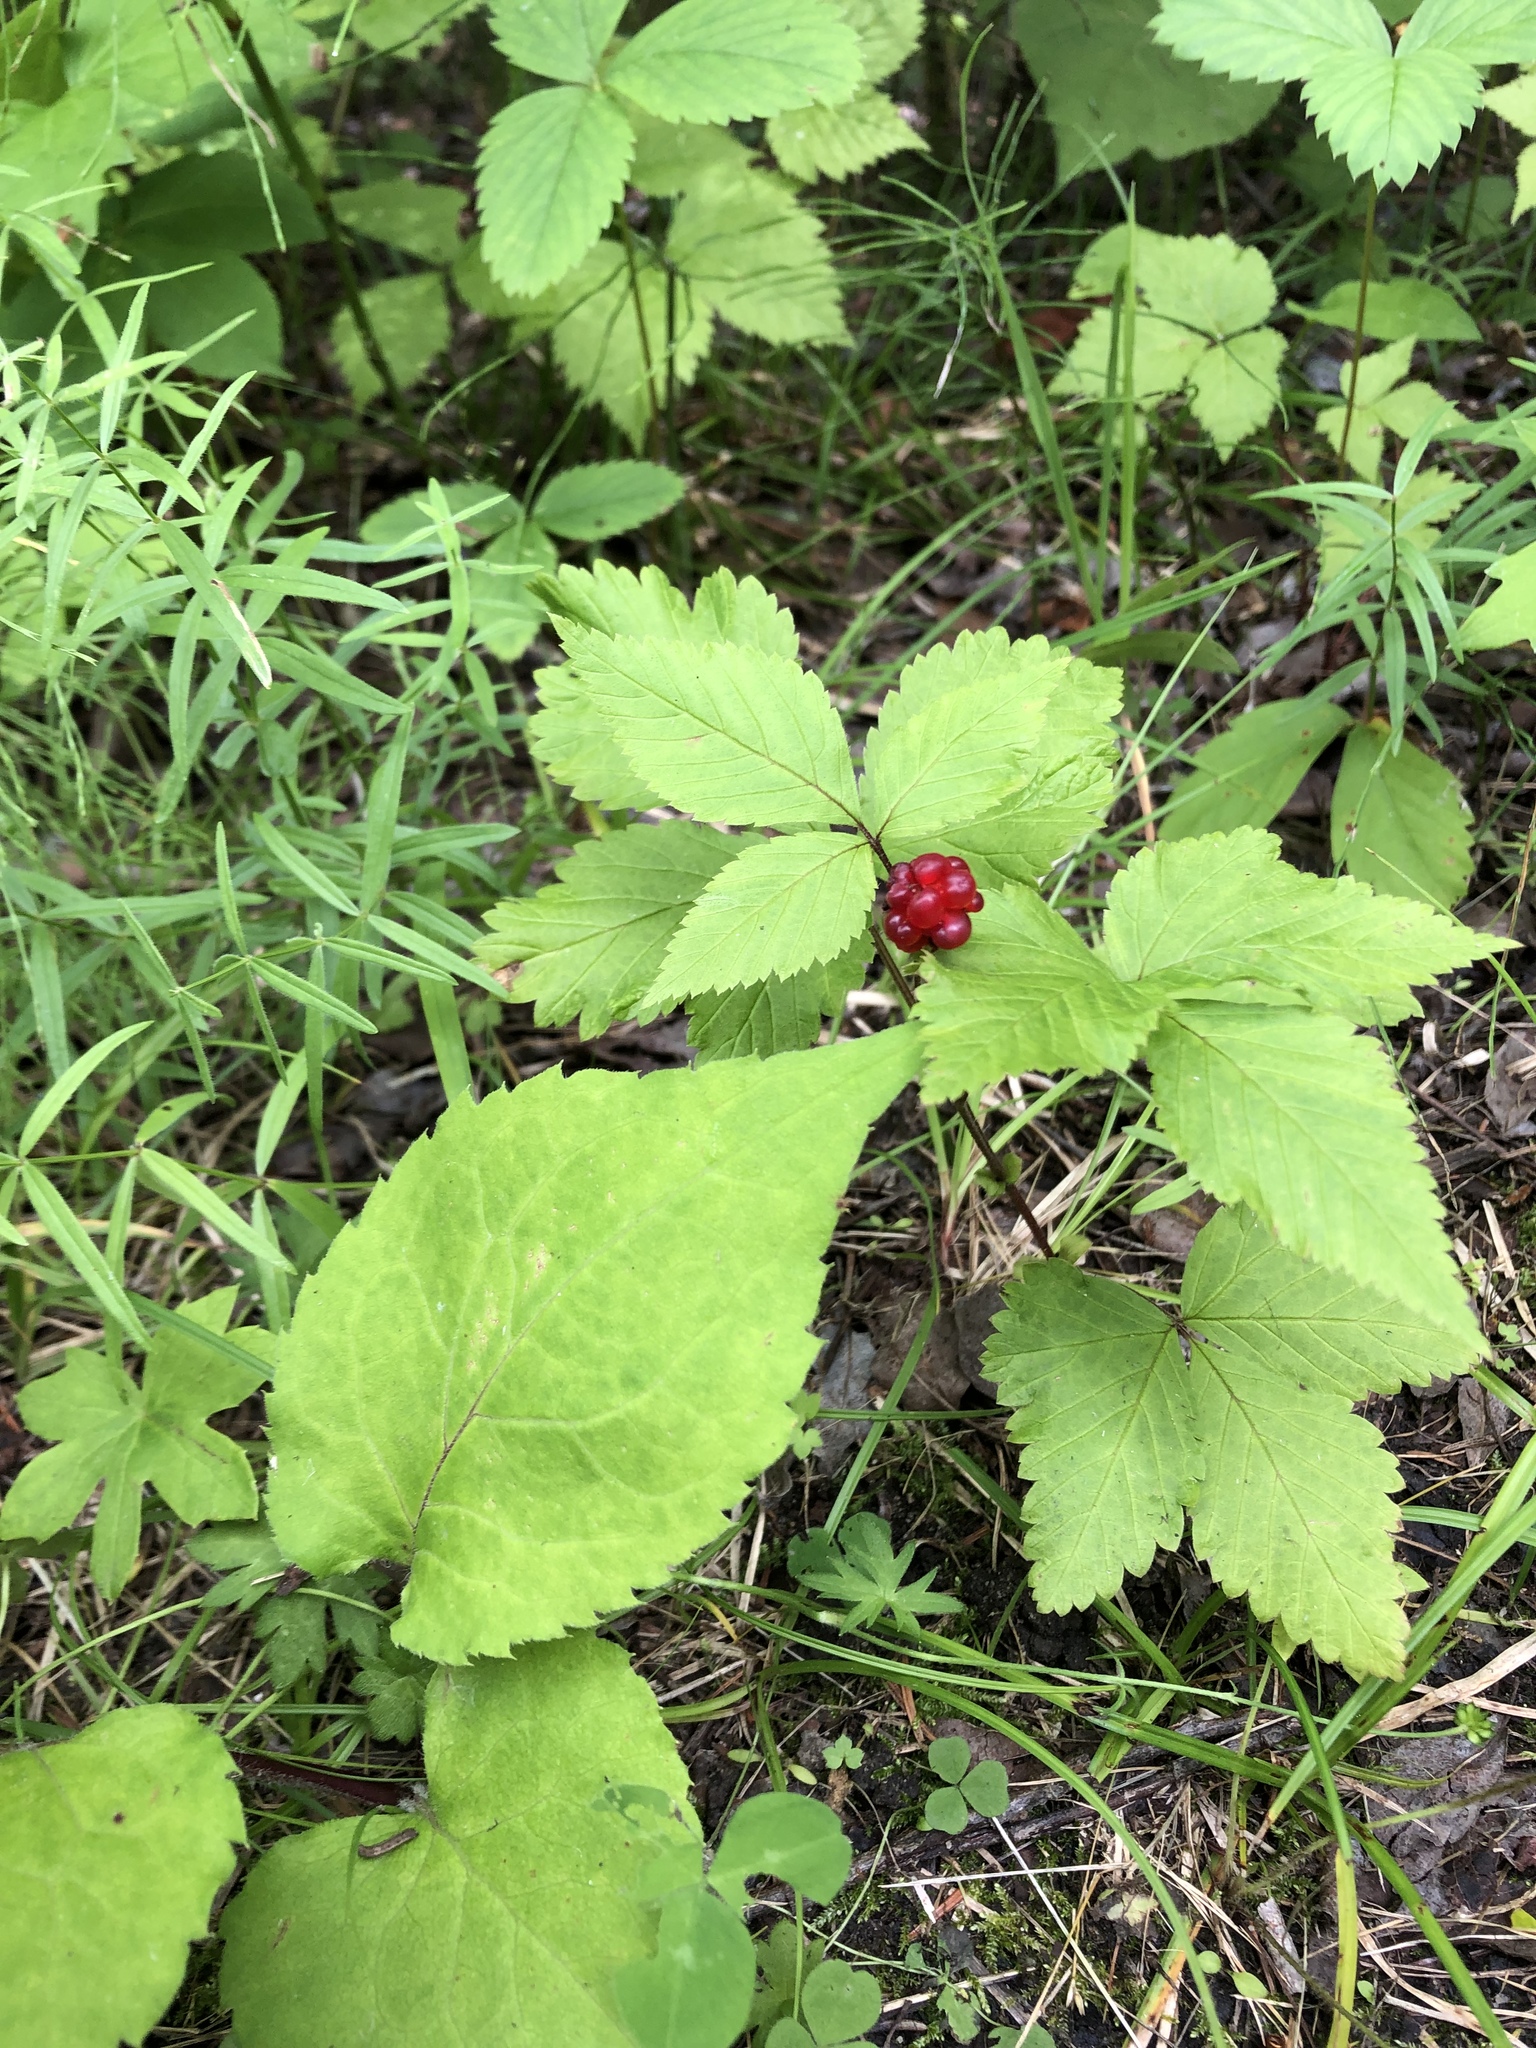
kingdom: Plantae
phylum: Tracheophyta
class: Magnoliopsida
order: Rosales
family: Rosaceae
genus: Rubus
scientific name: Rubus pubescens
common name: Dwarf raspberry
